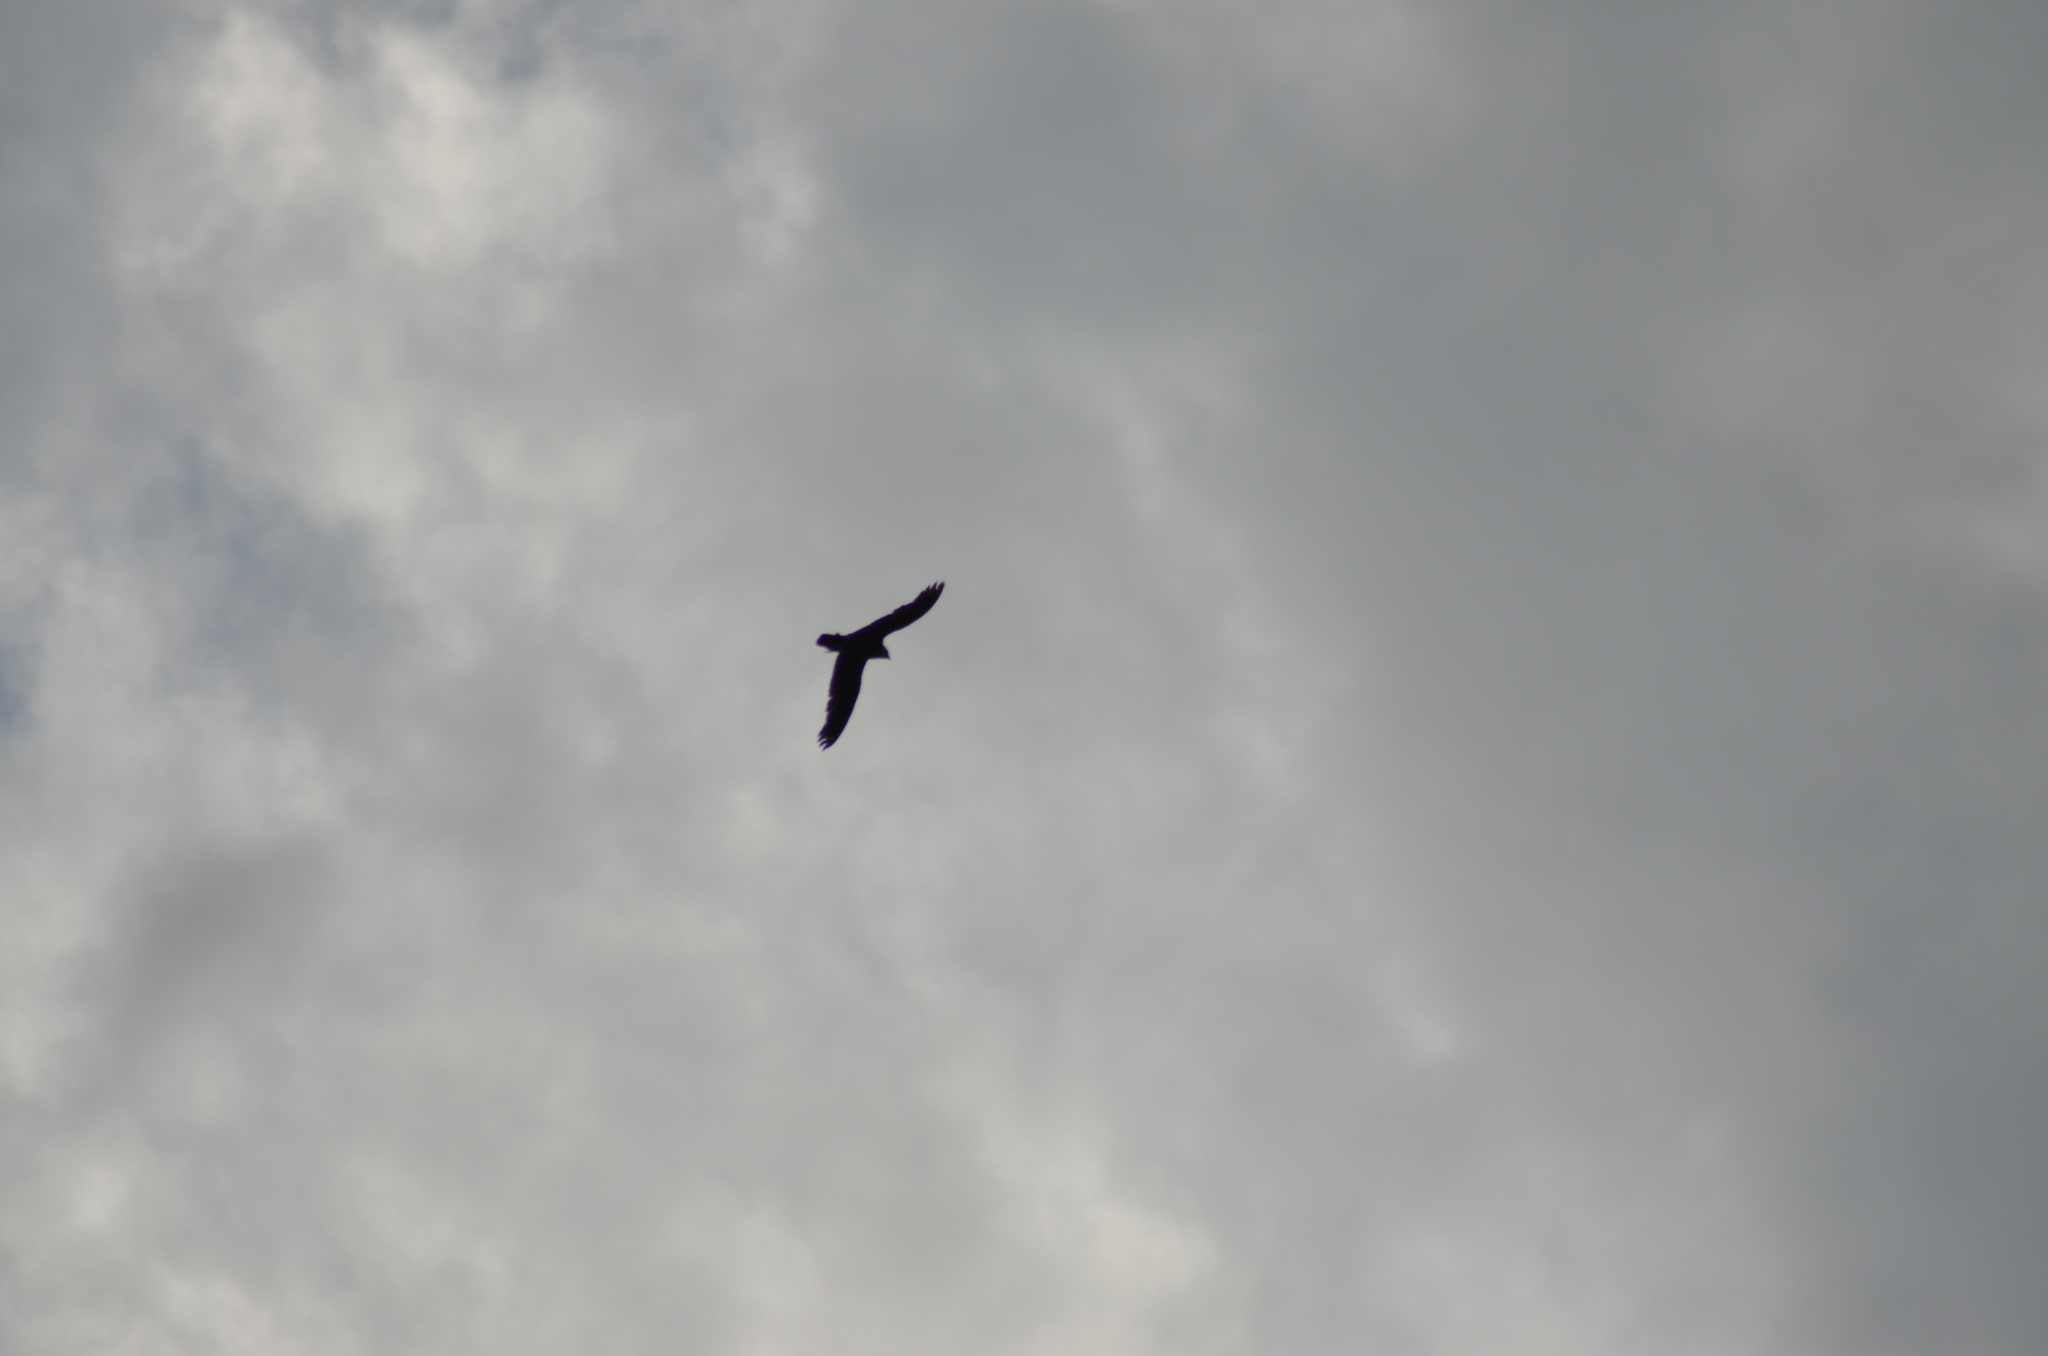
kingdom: Animalia
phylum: Chordata
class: Aves
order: Falconiformes
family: Falconidae
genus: Falco
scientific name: Falco tinnunculus
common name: Common kestrel
